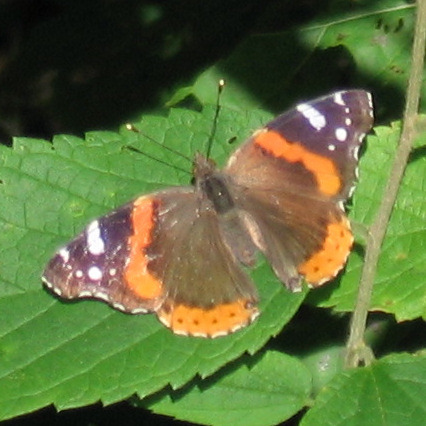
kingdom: Animalia
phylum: Arthropoda
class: Insecta
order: Lepidoptera
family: Nymphalidae
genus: Vanessa
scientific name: Vanessa atalanta
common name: Red admiral
